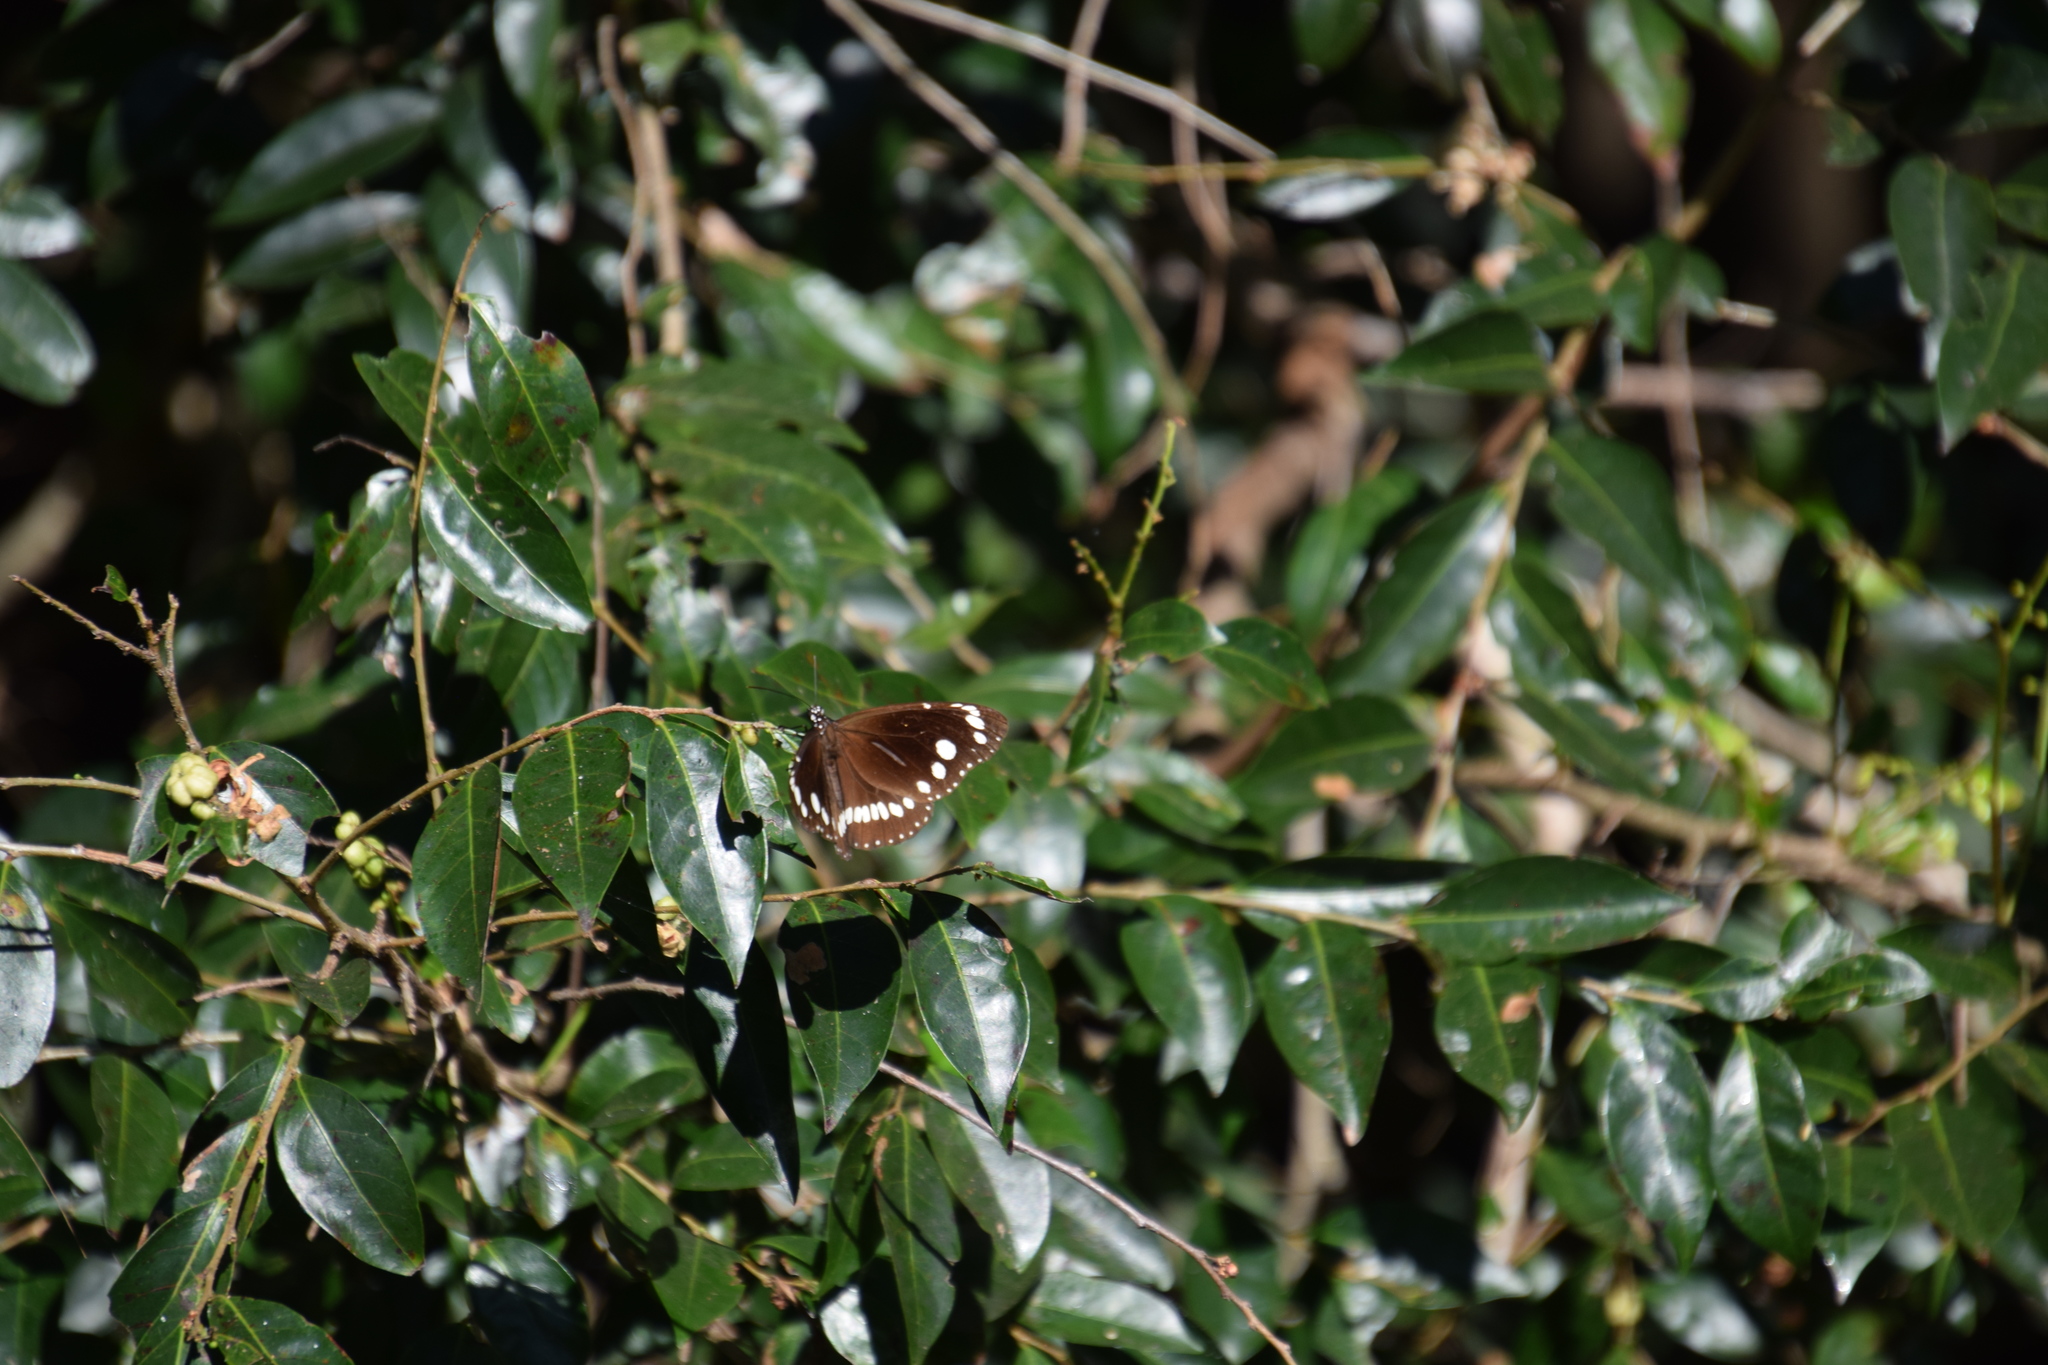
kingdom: Animalia
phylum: Arthropoda
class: Insecta
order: Lepidoptera
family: Nymphalidae
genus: Euploea
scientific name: Euploea core
